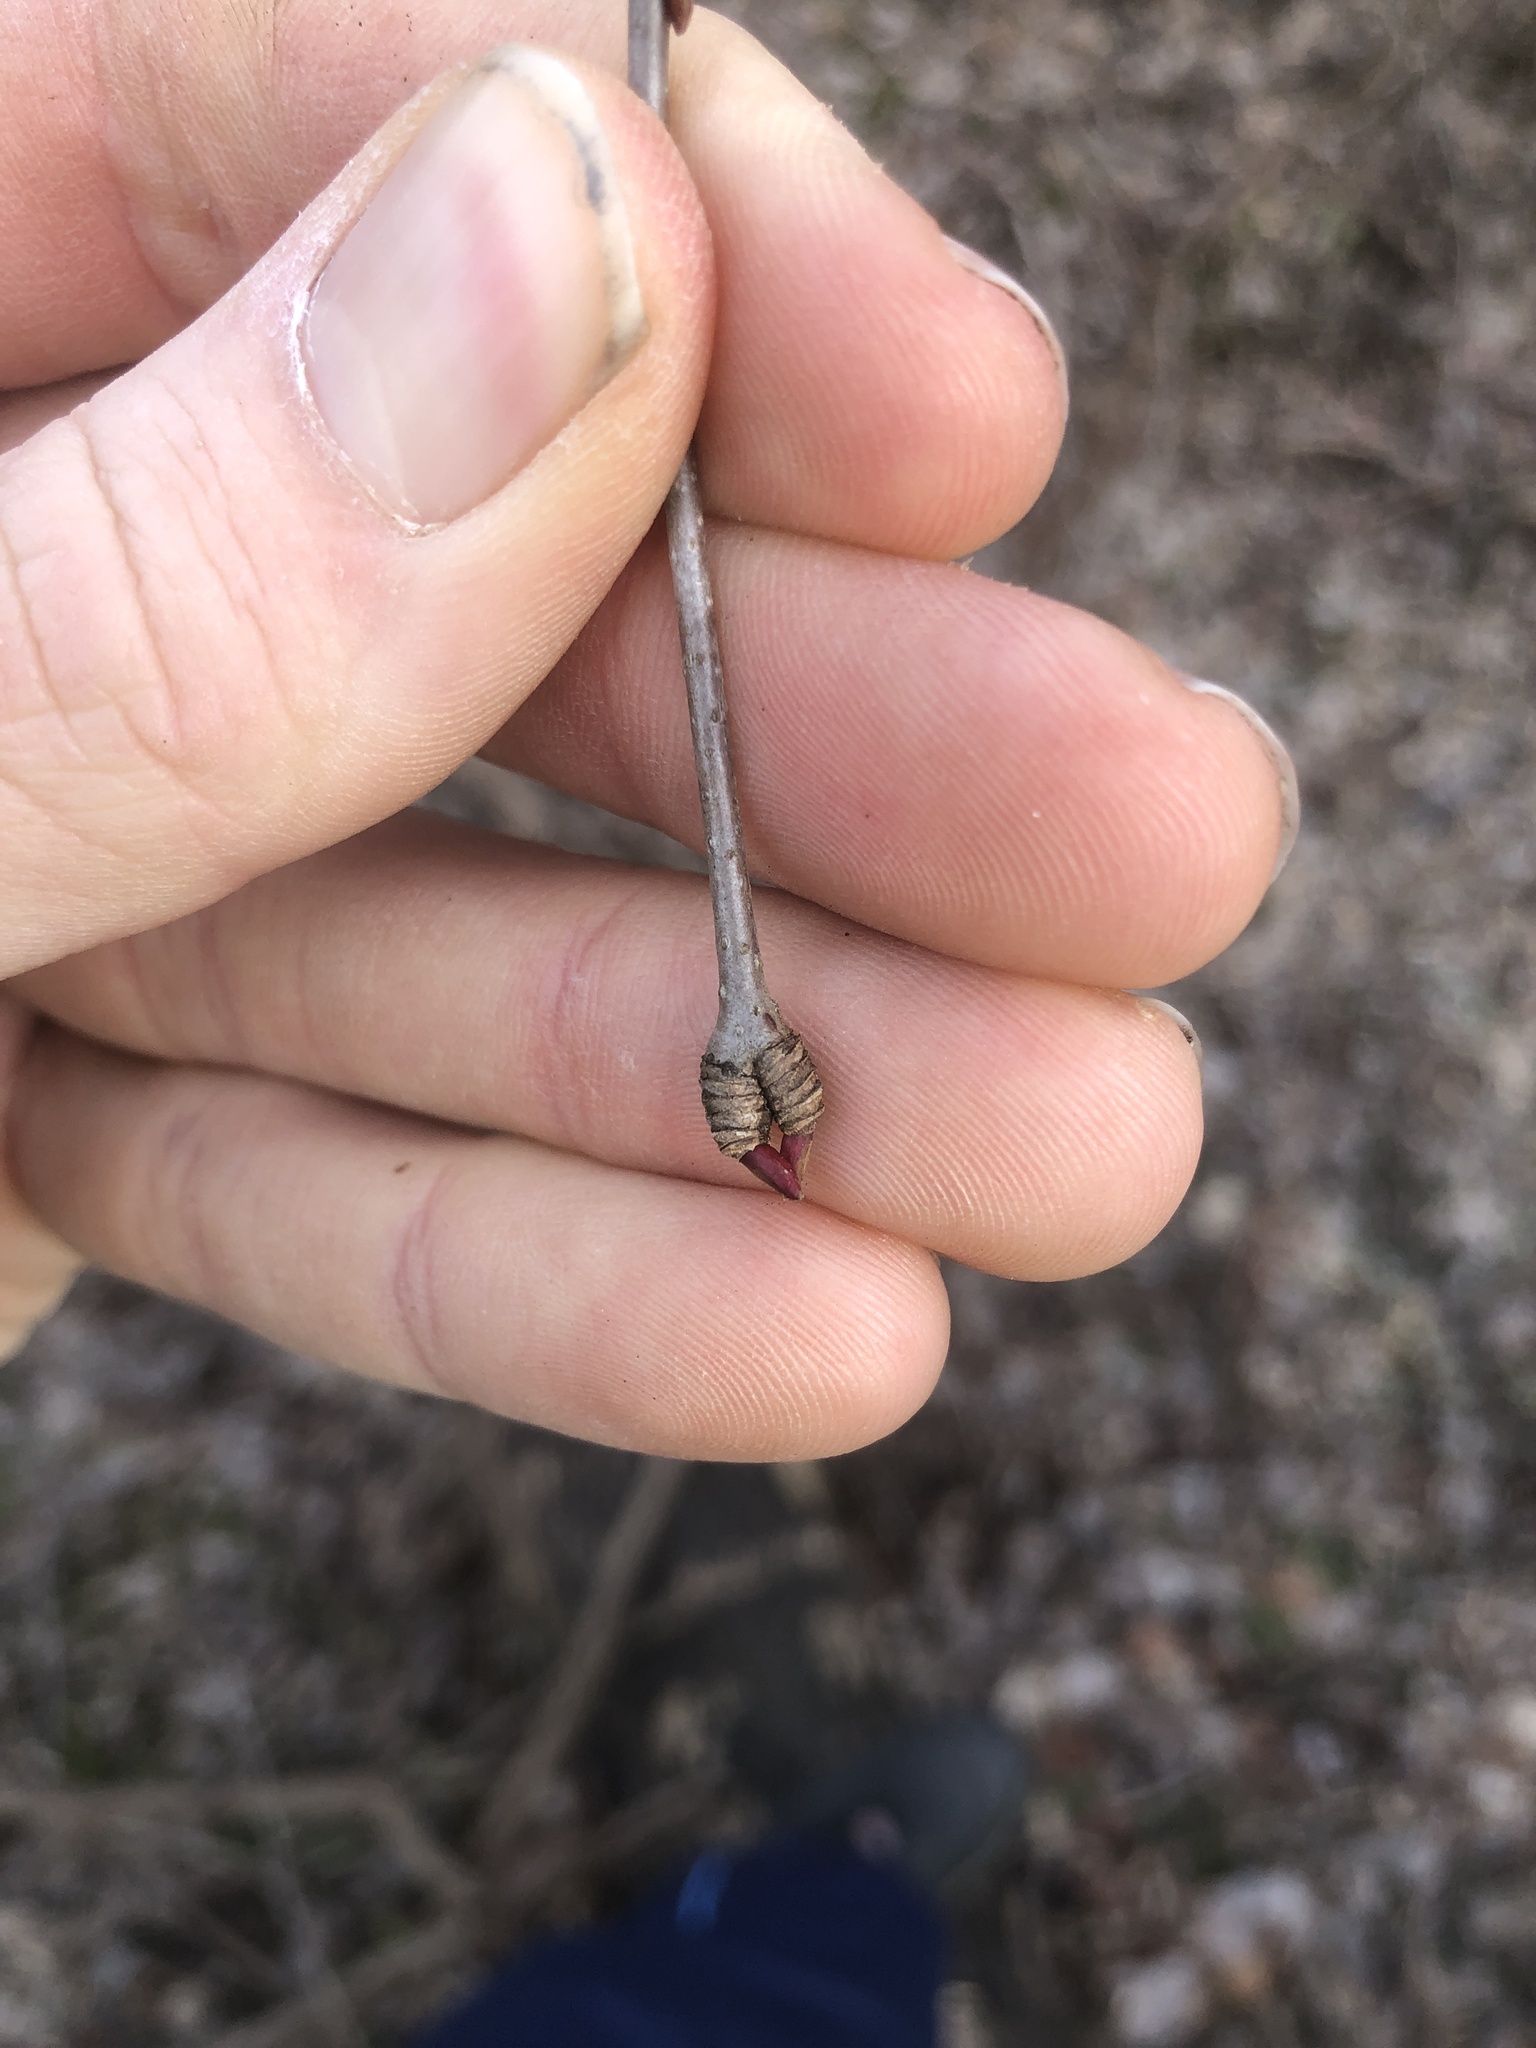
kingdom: Plantae
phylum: Tracheophyta
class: Magnoliopsida
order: Saxifragales
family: Cercidiphyllaceae
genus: Cercidiphyllum
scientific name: Cercidiphyllum japonicum
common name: Katsura tree
